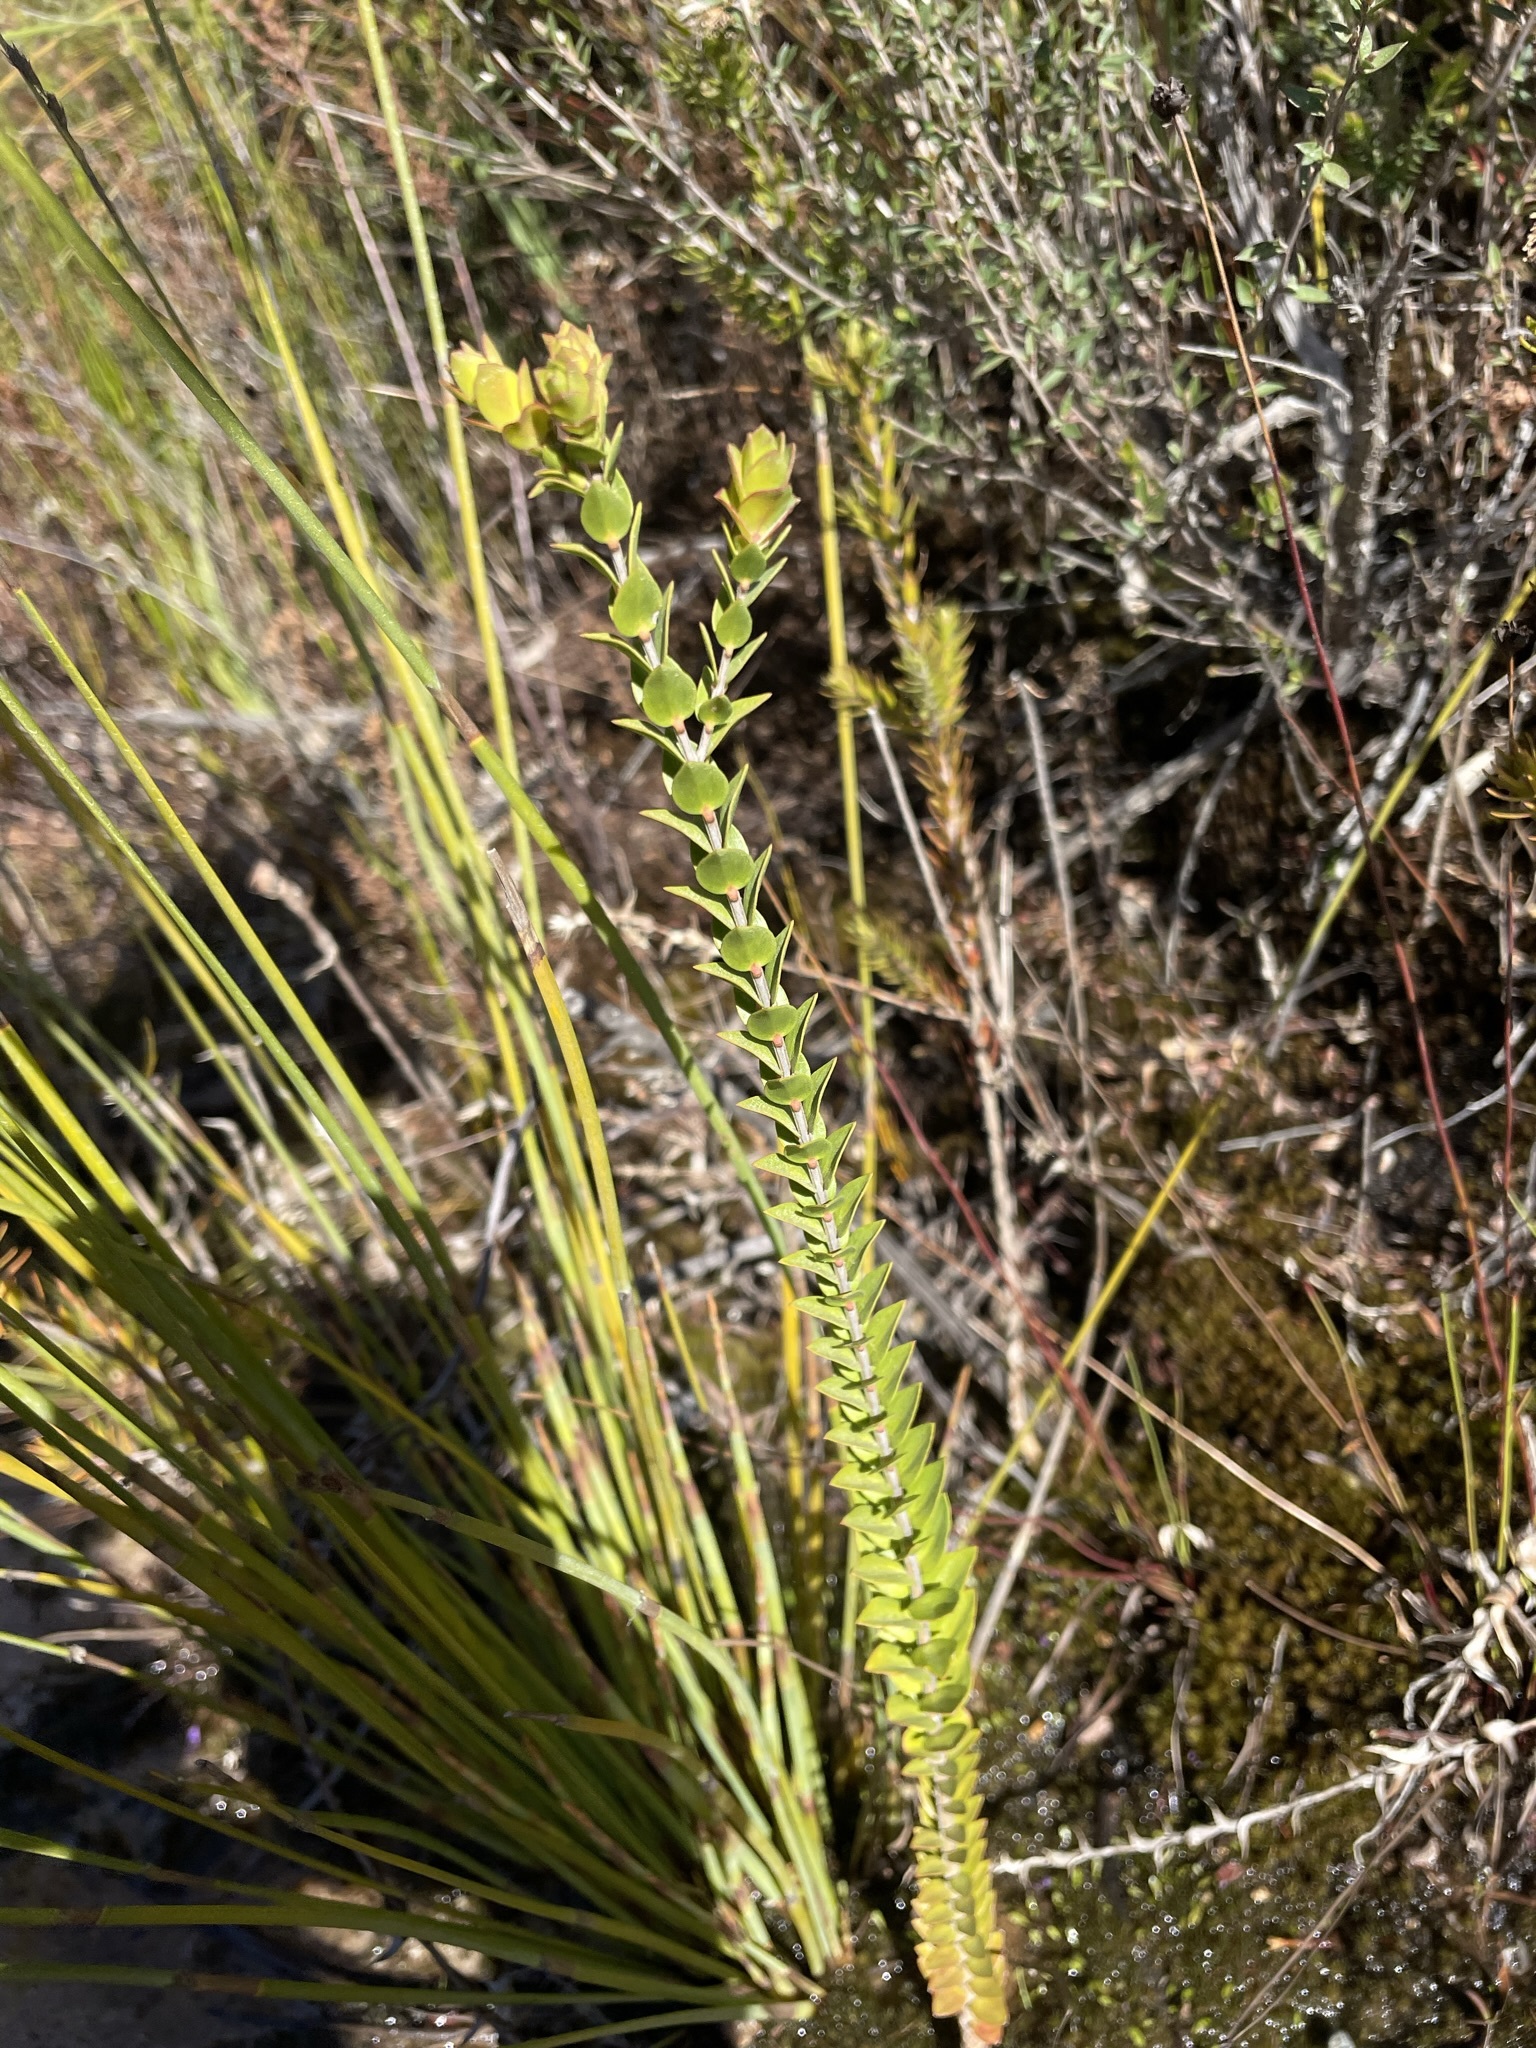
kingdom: Plantae
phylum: Tracheophyta
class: Magnoliopsida
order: Myrtales
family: Myrtaceae
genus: Melaleuca
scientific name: Melaleuca squarrosa
